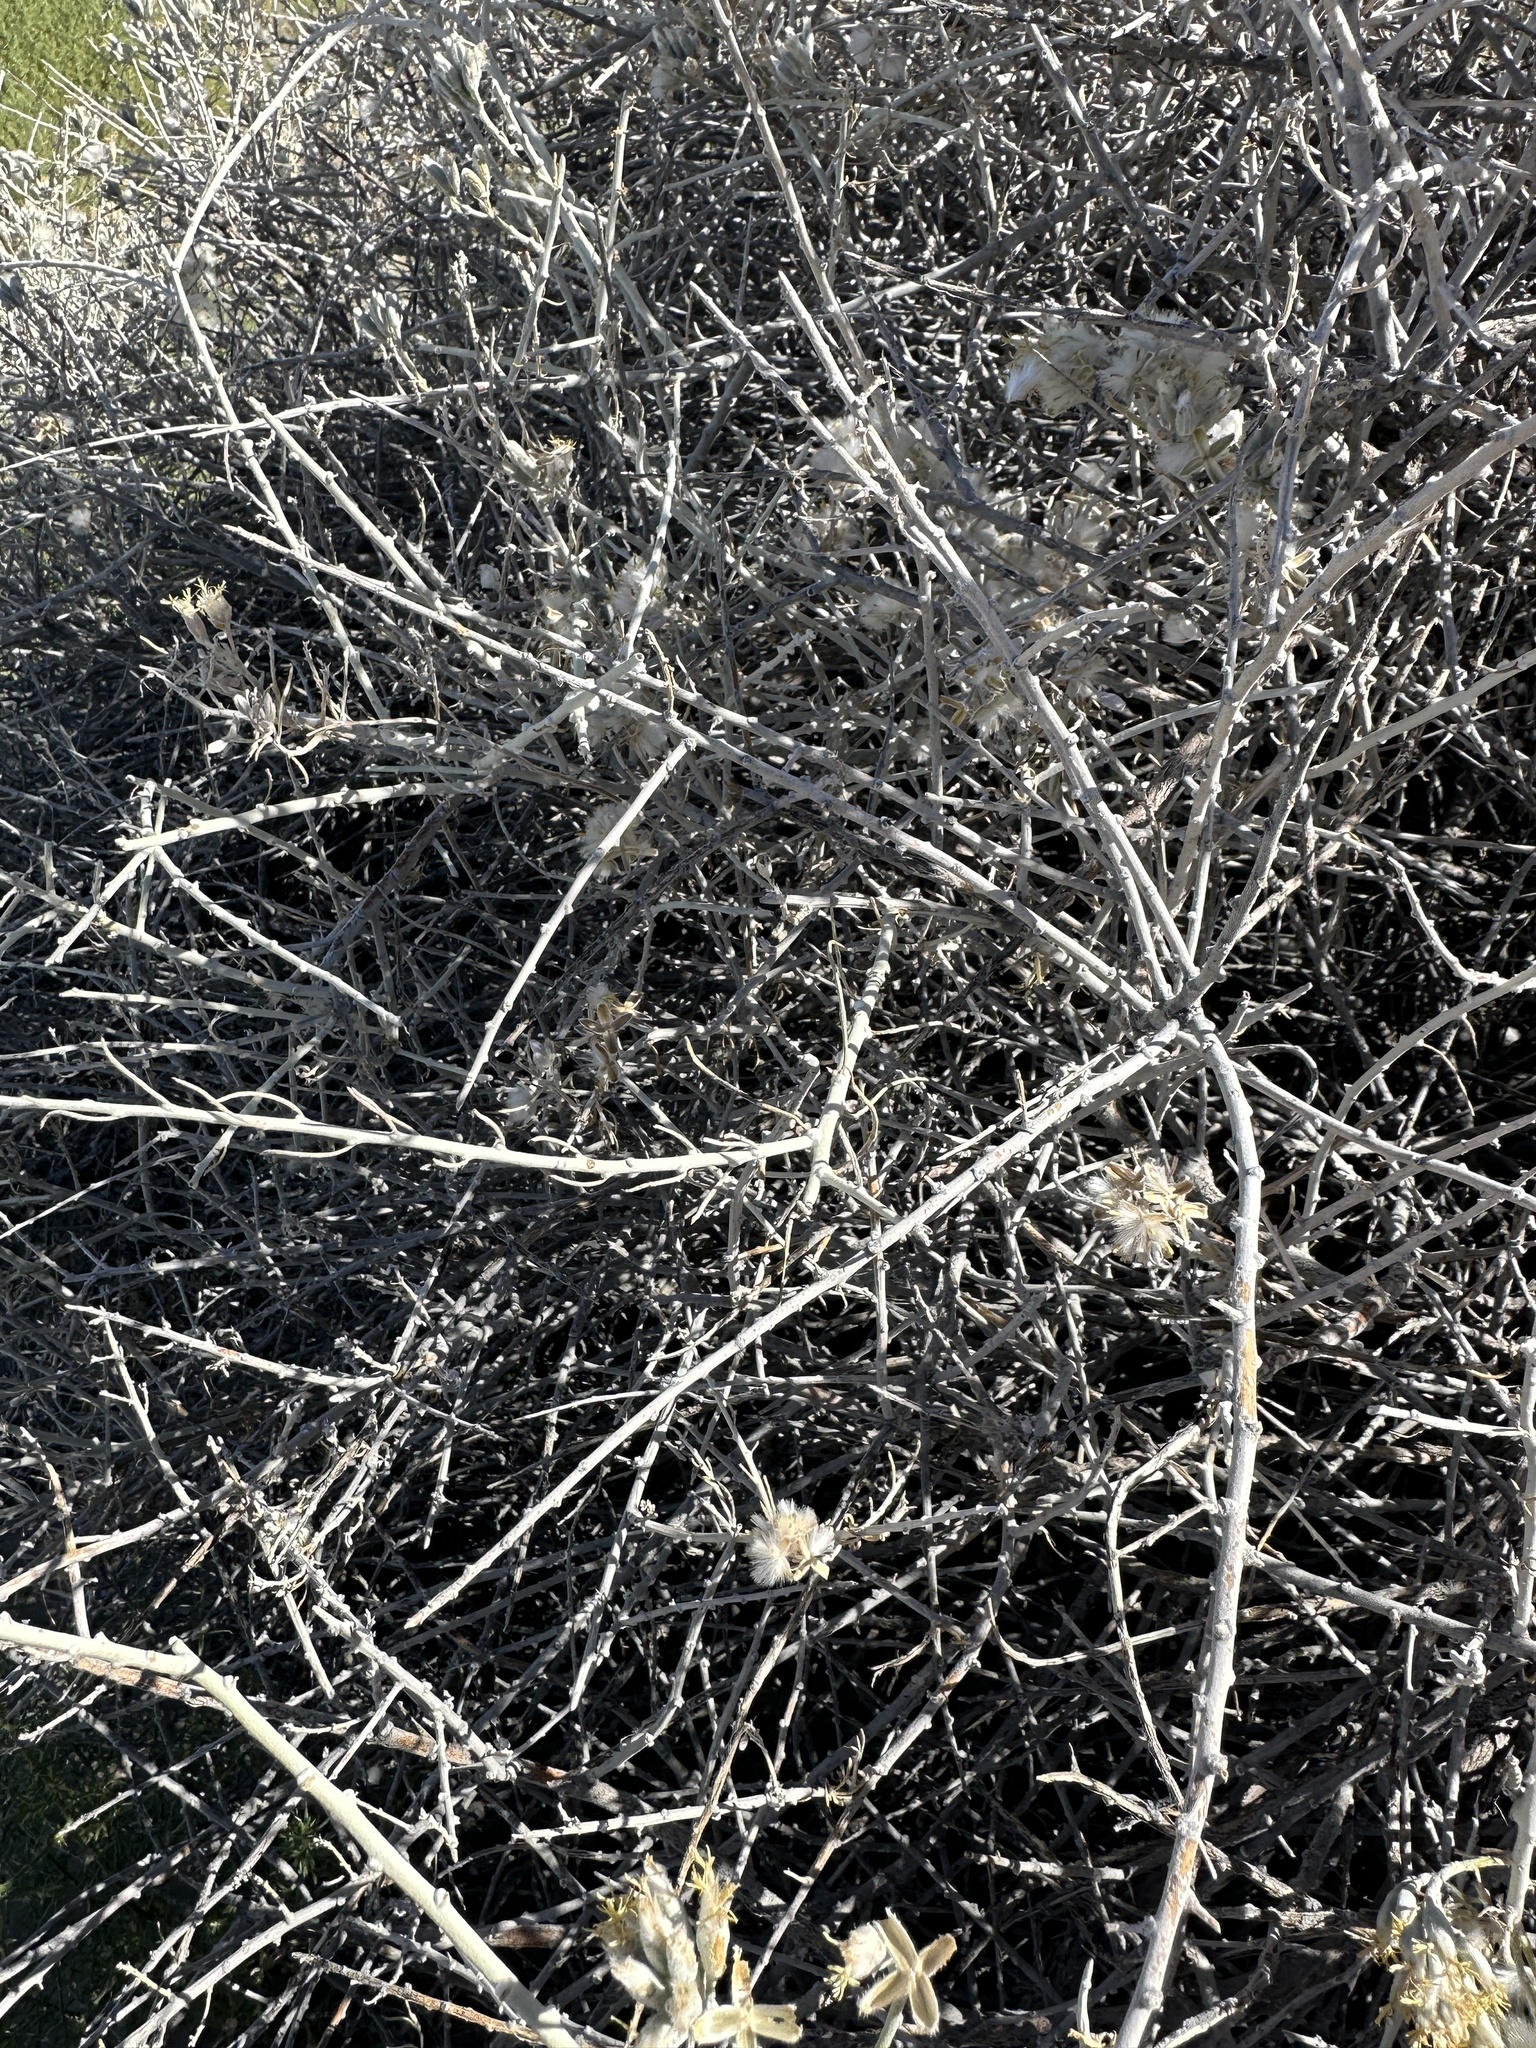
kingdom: Plantae
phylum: Tracheophyta
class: Magnoliopsida
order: Asterales
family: Asteraceae
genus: Tetradymia
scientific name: Tetradymia tetrameres
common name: Dune horsebrush
